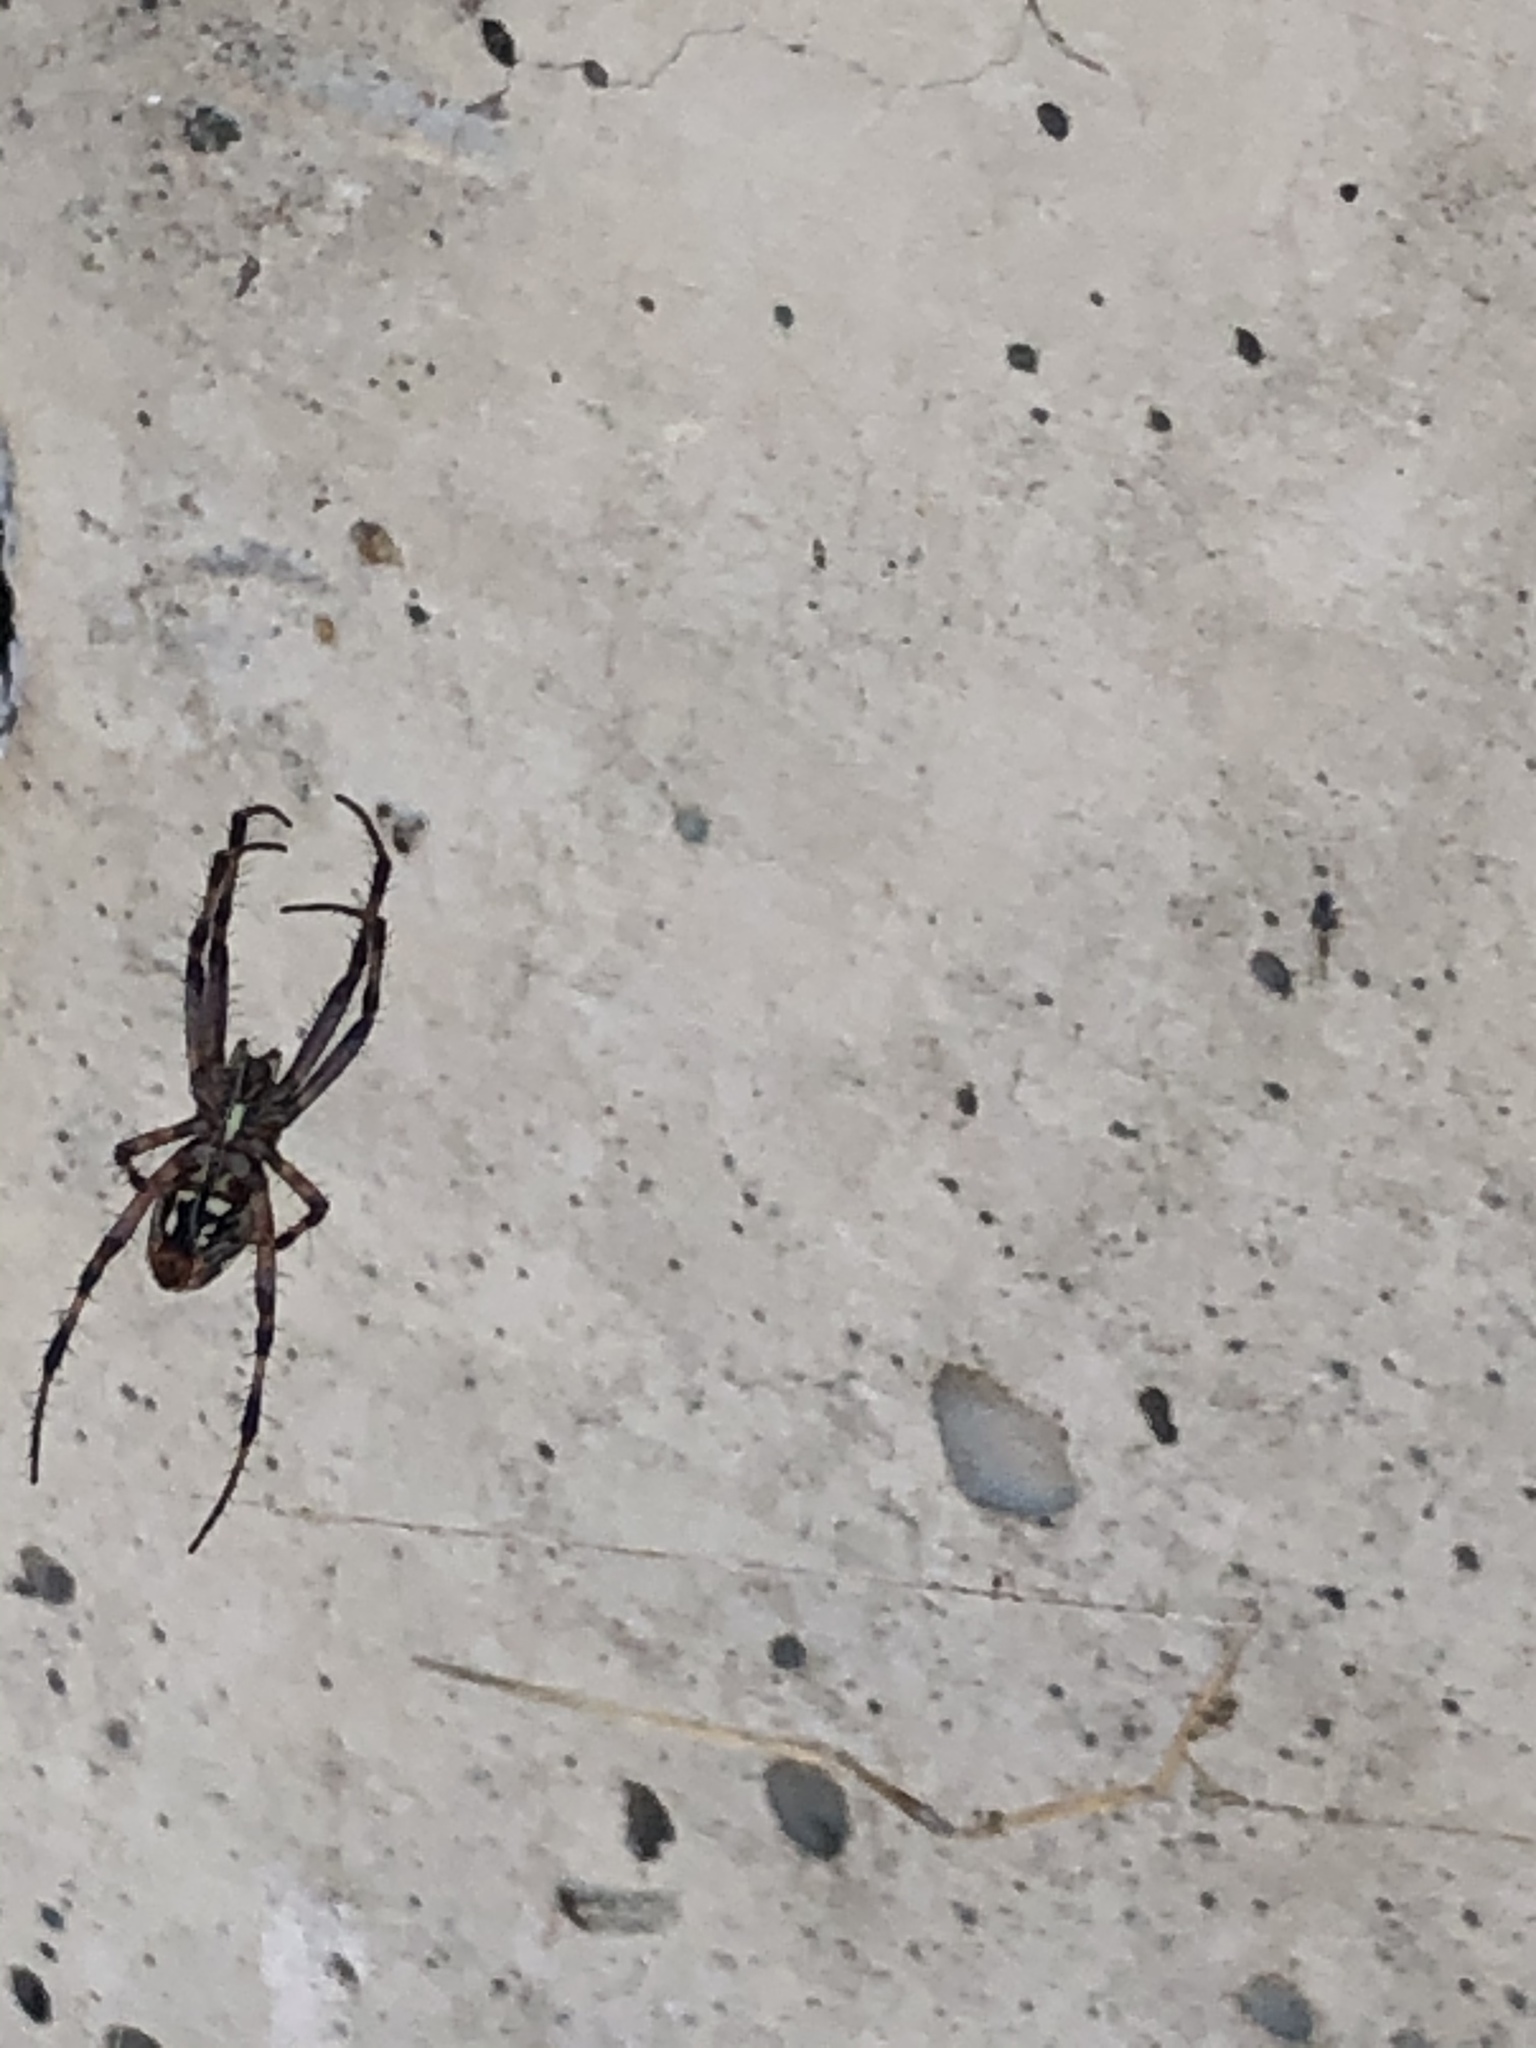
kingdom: Animalia
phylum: Arthropoda
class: Arachnida
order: Araneae
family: Araneidae
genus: Neoscona
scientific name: Neoscona oaxacensis
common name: Orb weavers
